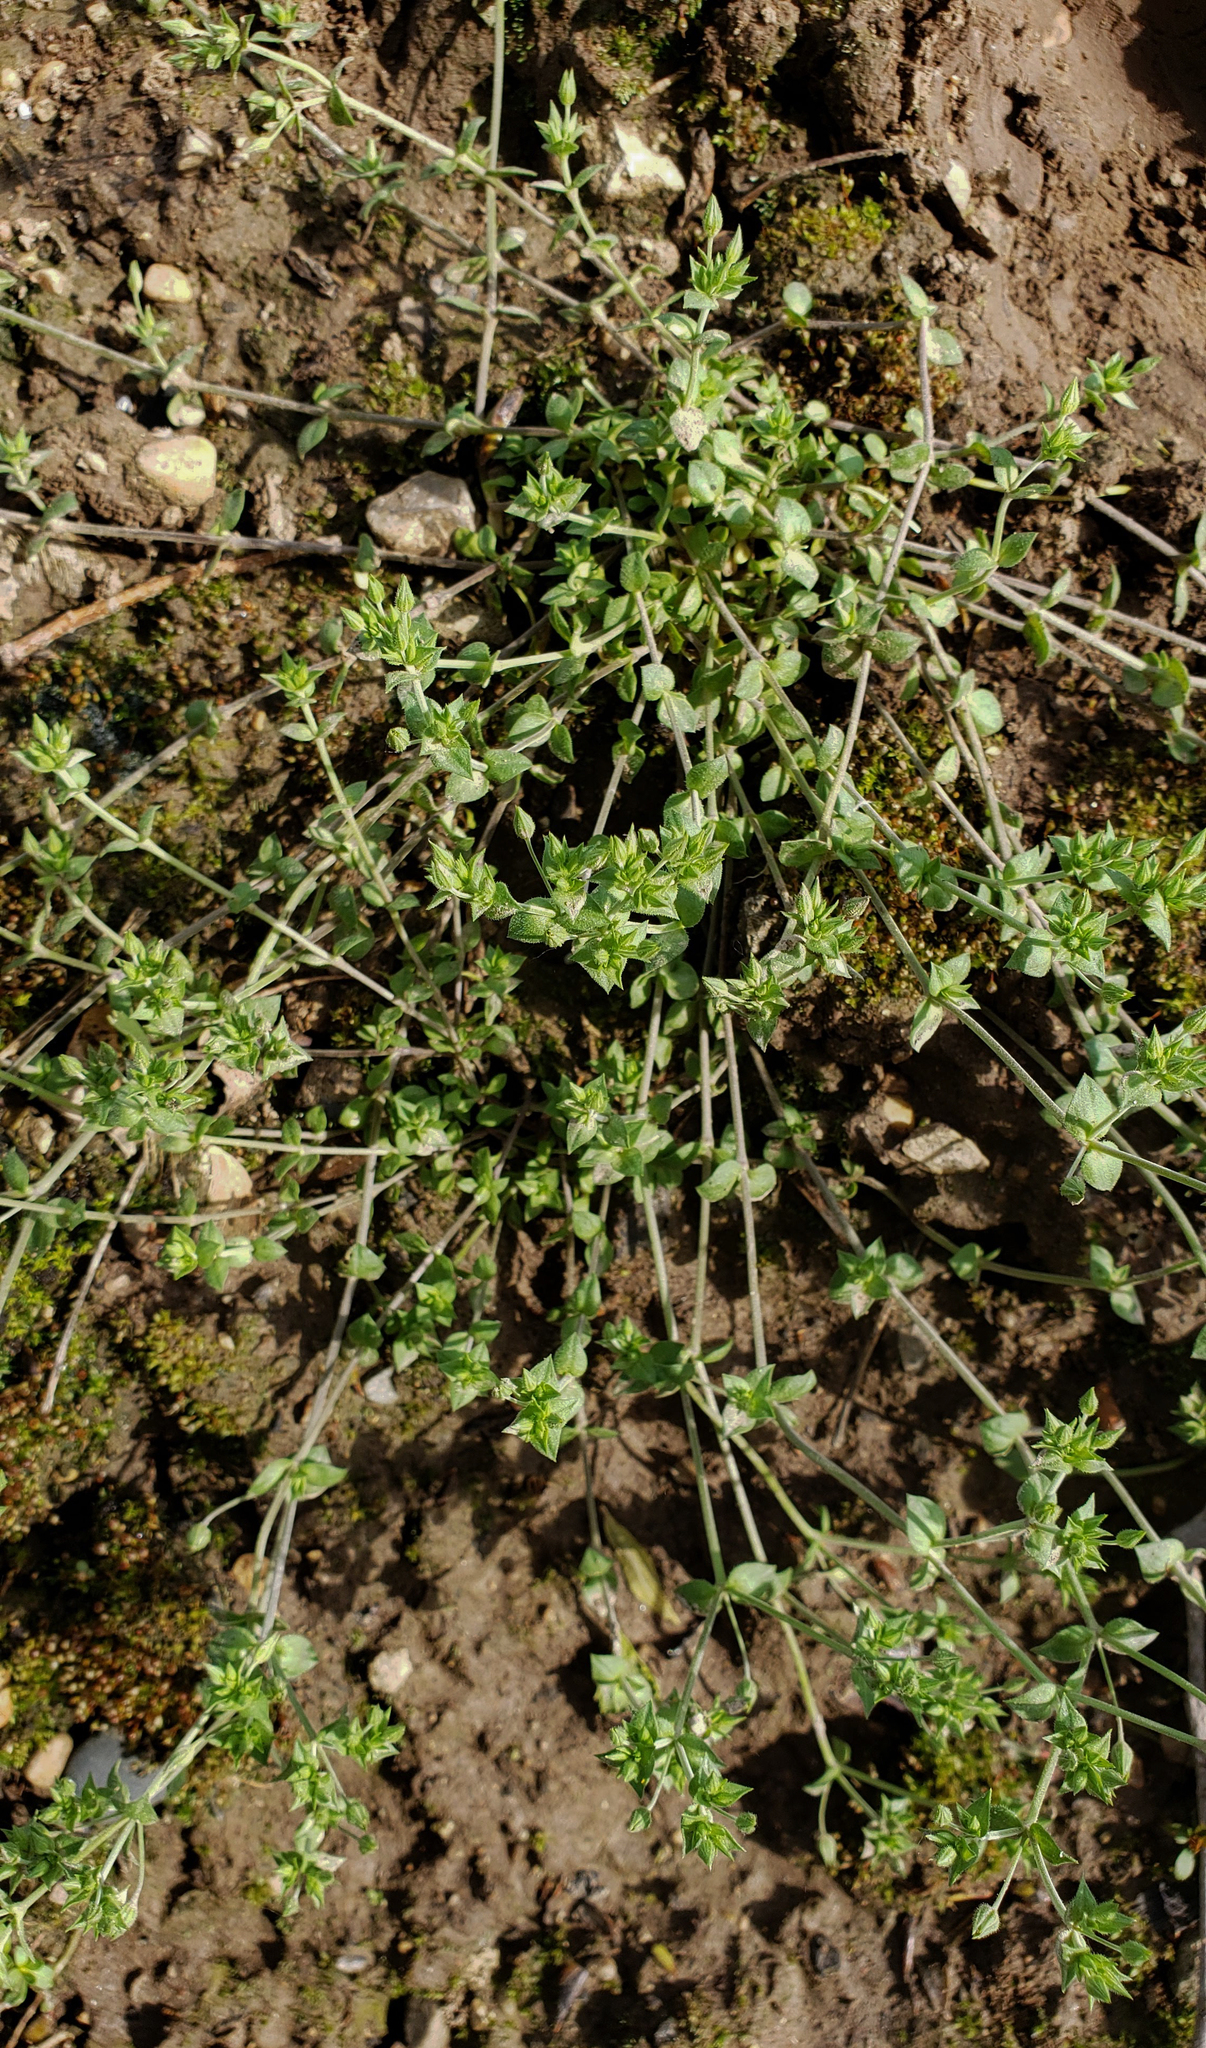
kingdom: Plantae
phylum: Tracheophyta
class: Magnoliopsida
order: Caryophyllales
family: Caryophyllaceae
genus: Arenaria
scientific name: Arenaria serpyllifolia
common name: Thyme-leaved sandwort
